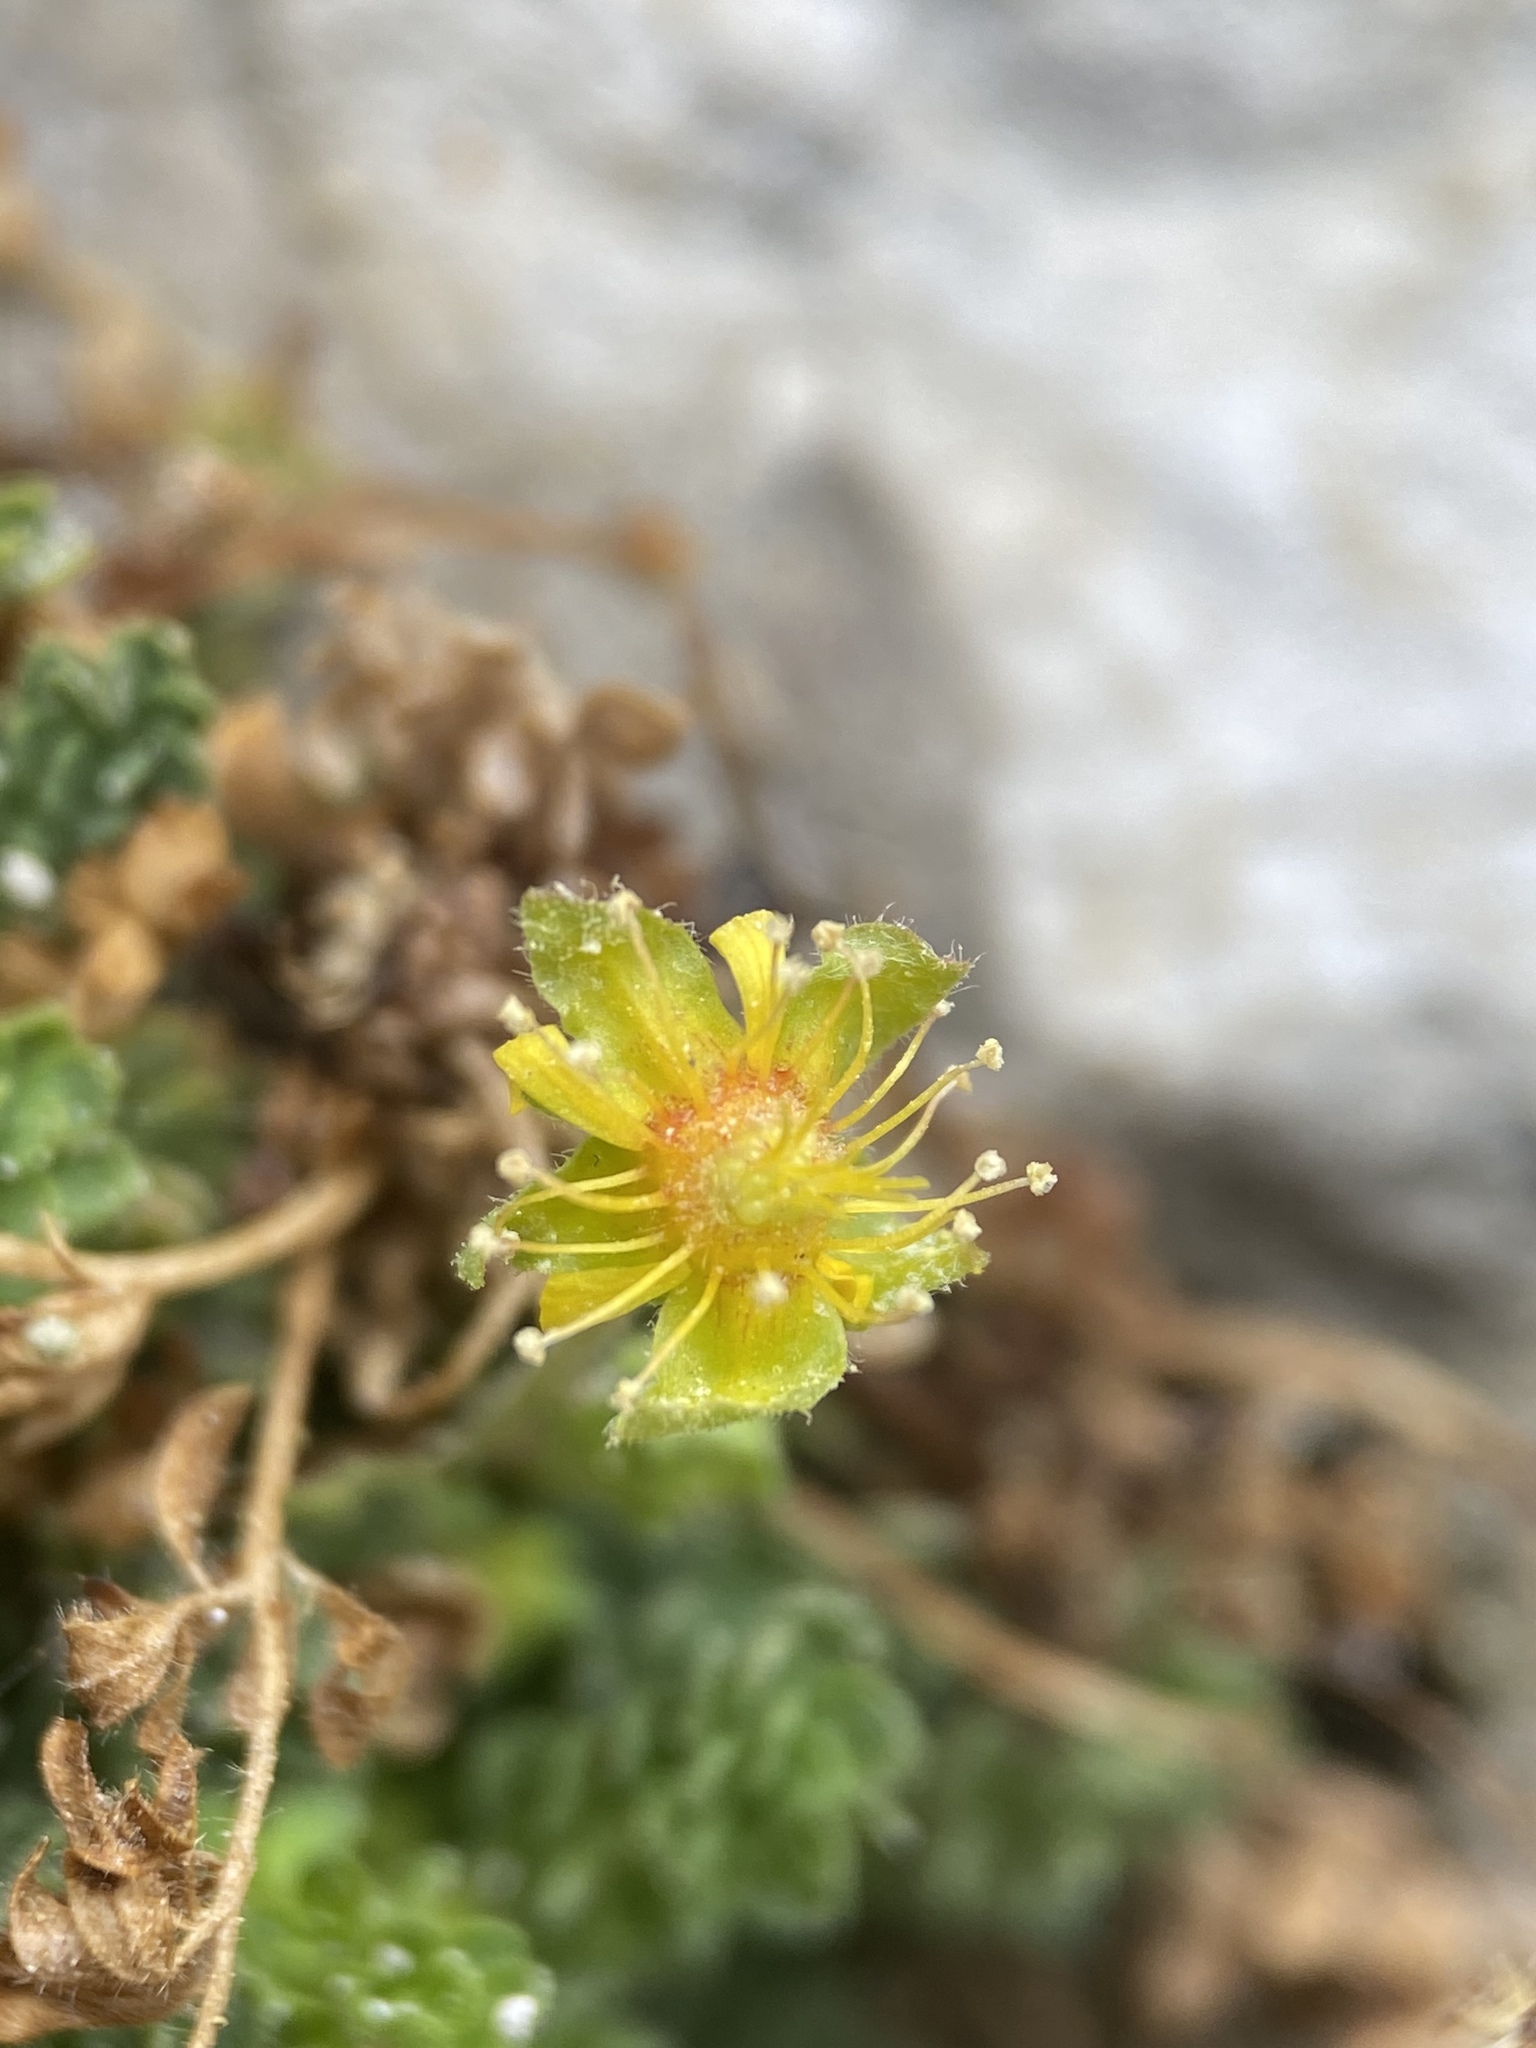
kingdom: Plantae
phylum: Tracheophyta
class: Magnoliopsida
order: Rosales
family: Rosaceae
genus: Potentilla
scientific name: Potentilla jaegeri
